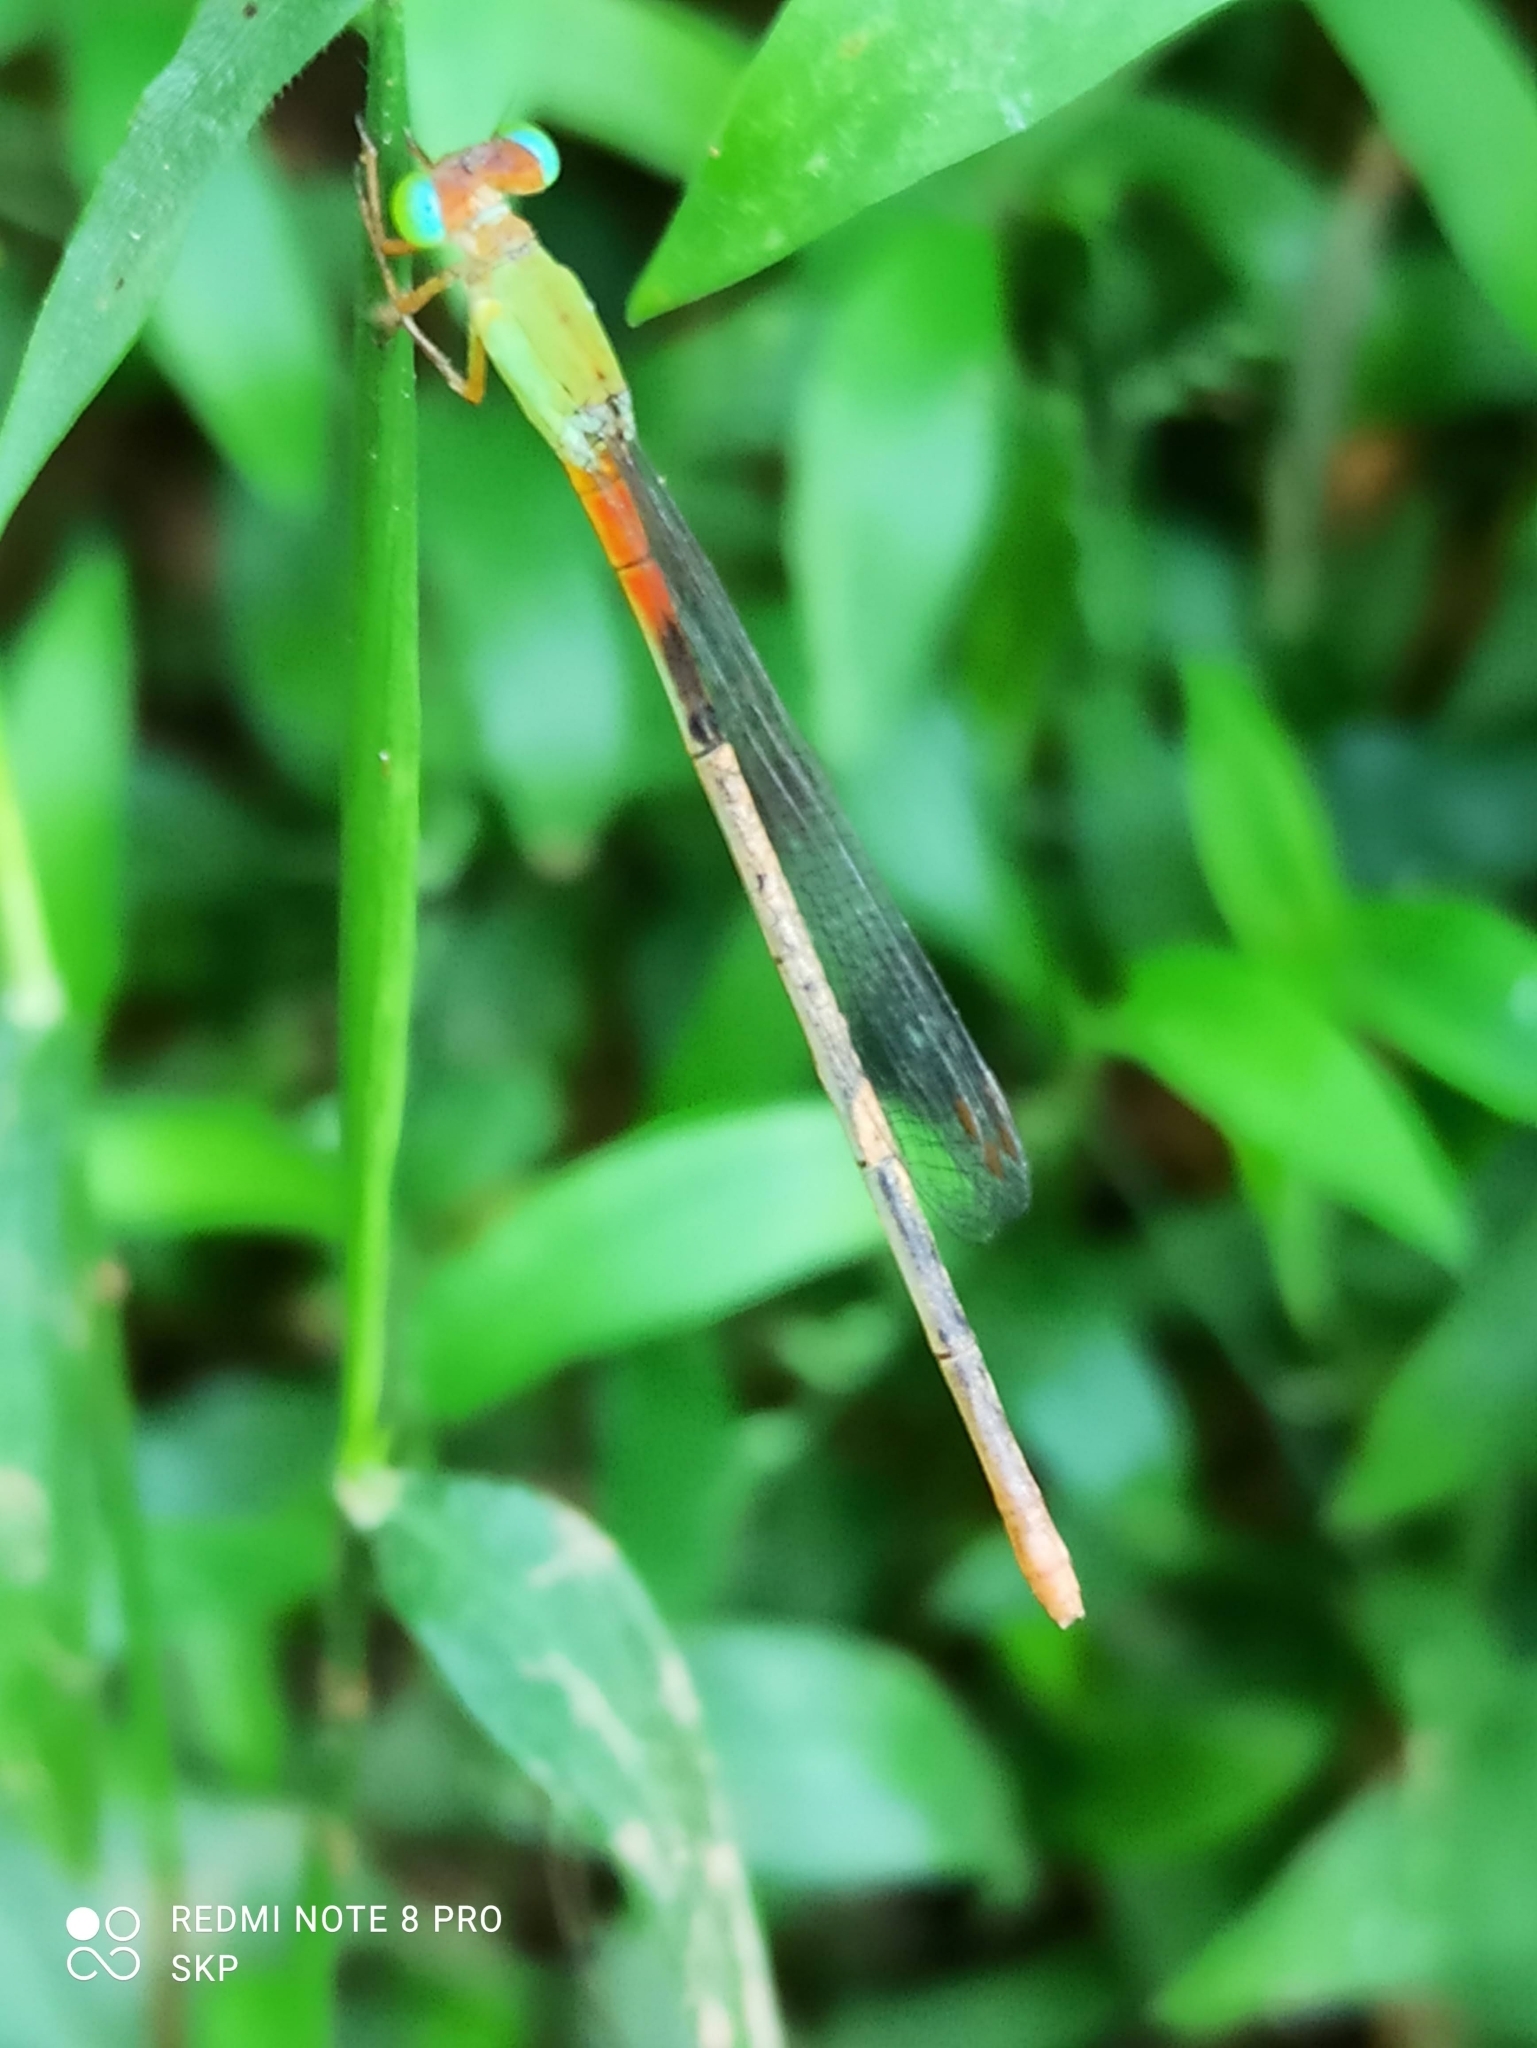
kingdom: Animalia
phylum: Arthropoda
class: Insecta
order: Odonata
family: Coenagrionidae
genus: Ceriagrion
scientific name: Ceriagrion cerinorubellum
